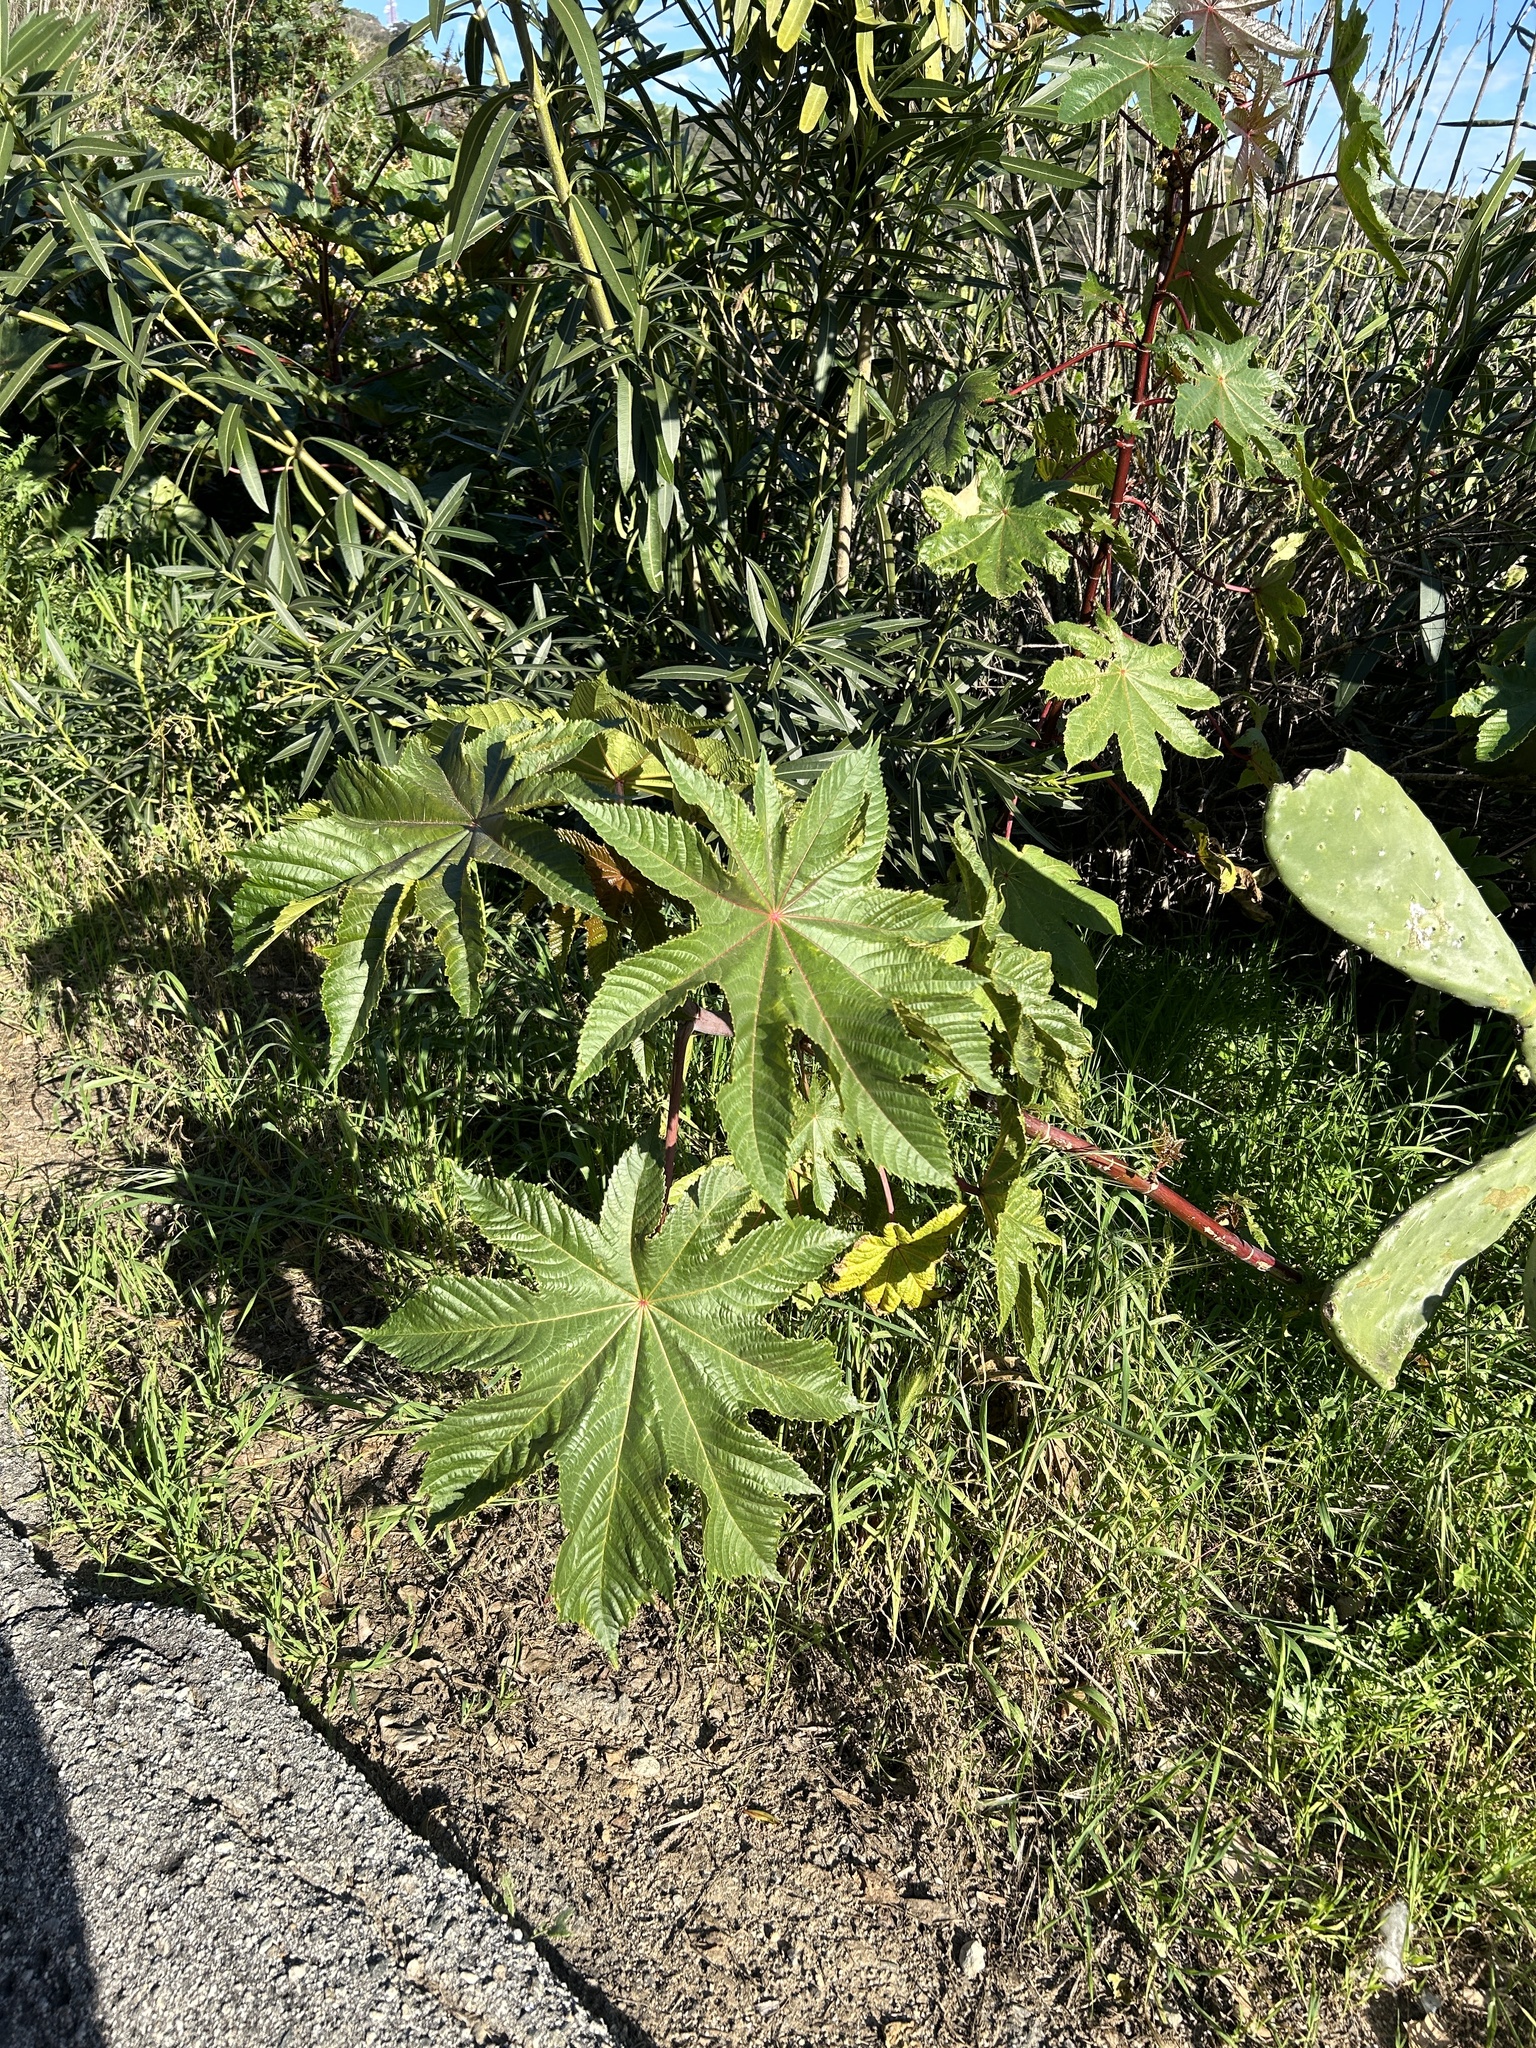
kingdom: Plantae
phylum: Tracheophyta
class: Magnoliopsida
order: Malpighiales
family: Euphorbiaceae
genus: Ricinus
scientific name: Ricinus communis
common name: Castor-oil-plant
